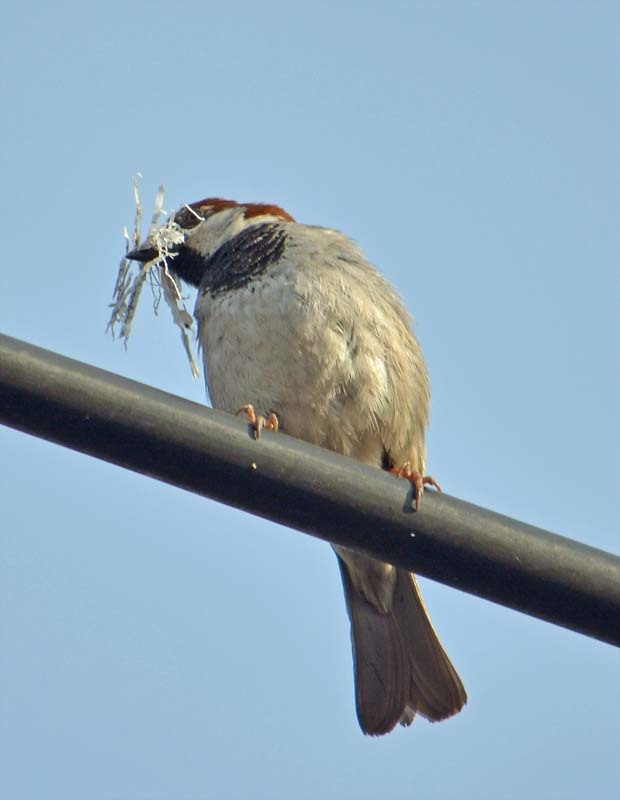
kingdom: Animalia
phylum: Chordata
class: Aves
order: Passeriformes
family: Passeridae
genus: Passer
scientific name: Passer domesticus
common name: House sparrow
